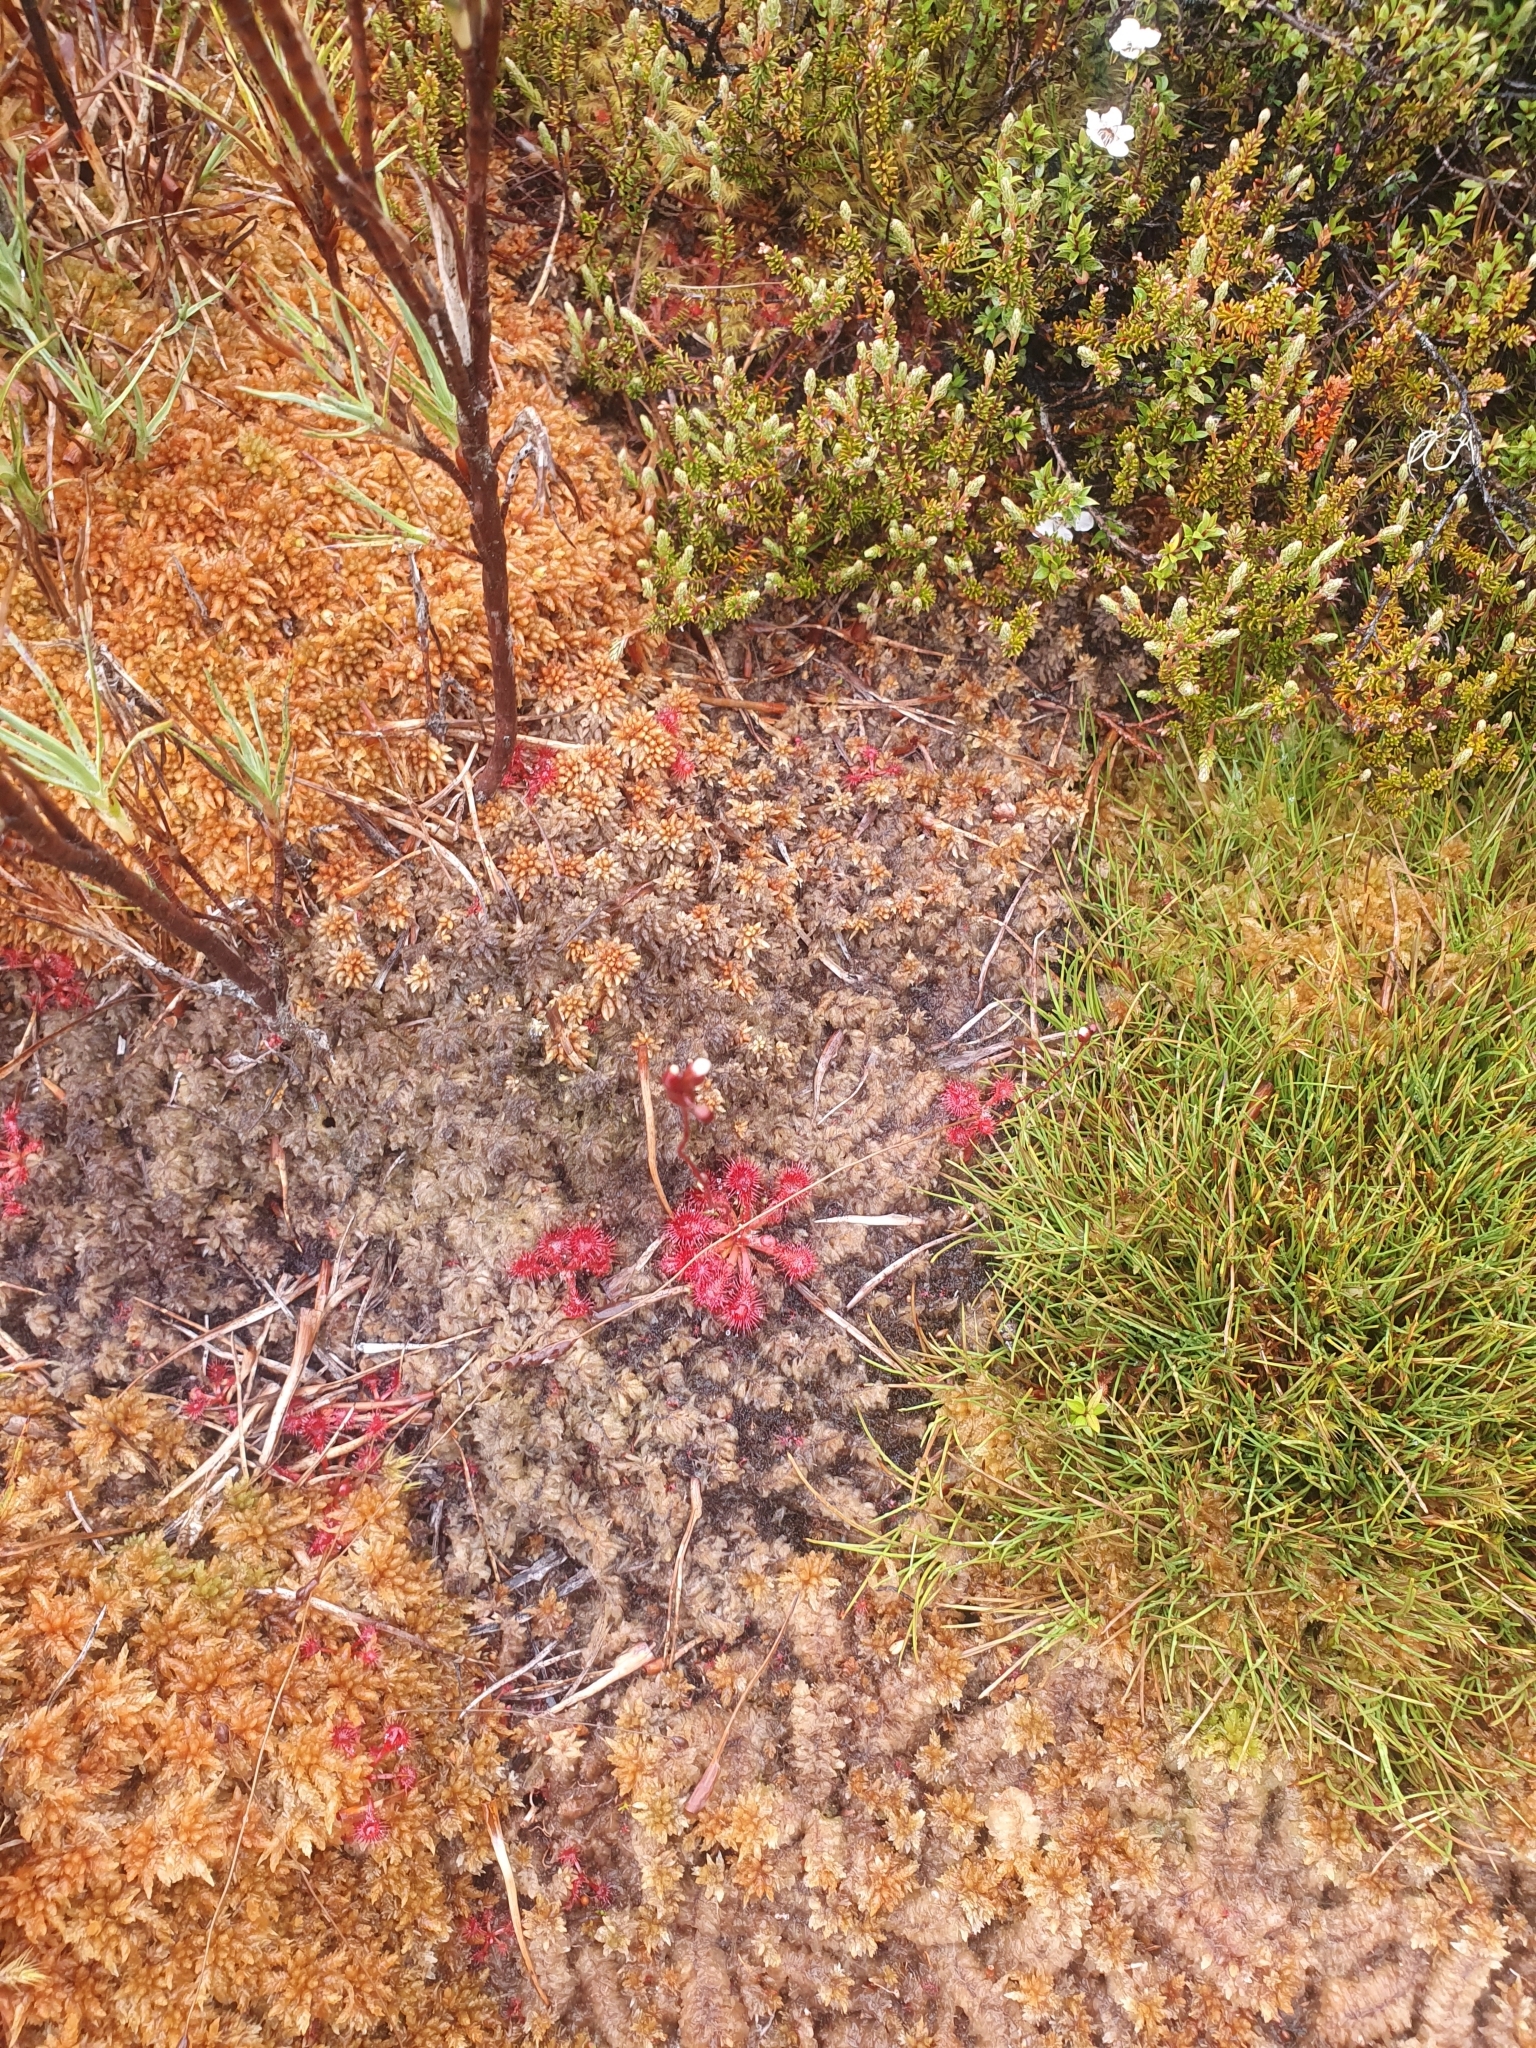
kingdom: Plantae
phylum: Tracheophyta
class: Magnoliopsida
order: Caryophyllales
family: Droseraceae
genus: Drosera
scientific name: Drosera spatulata
